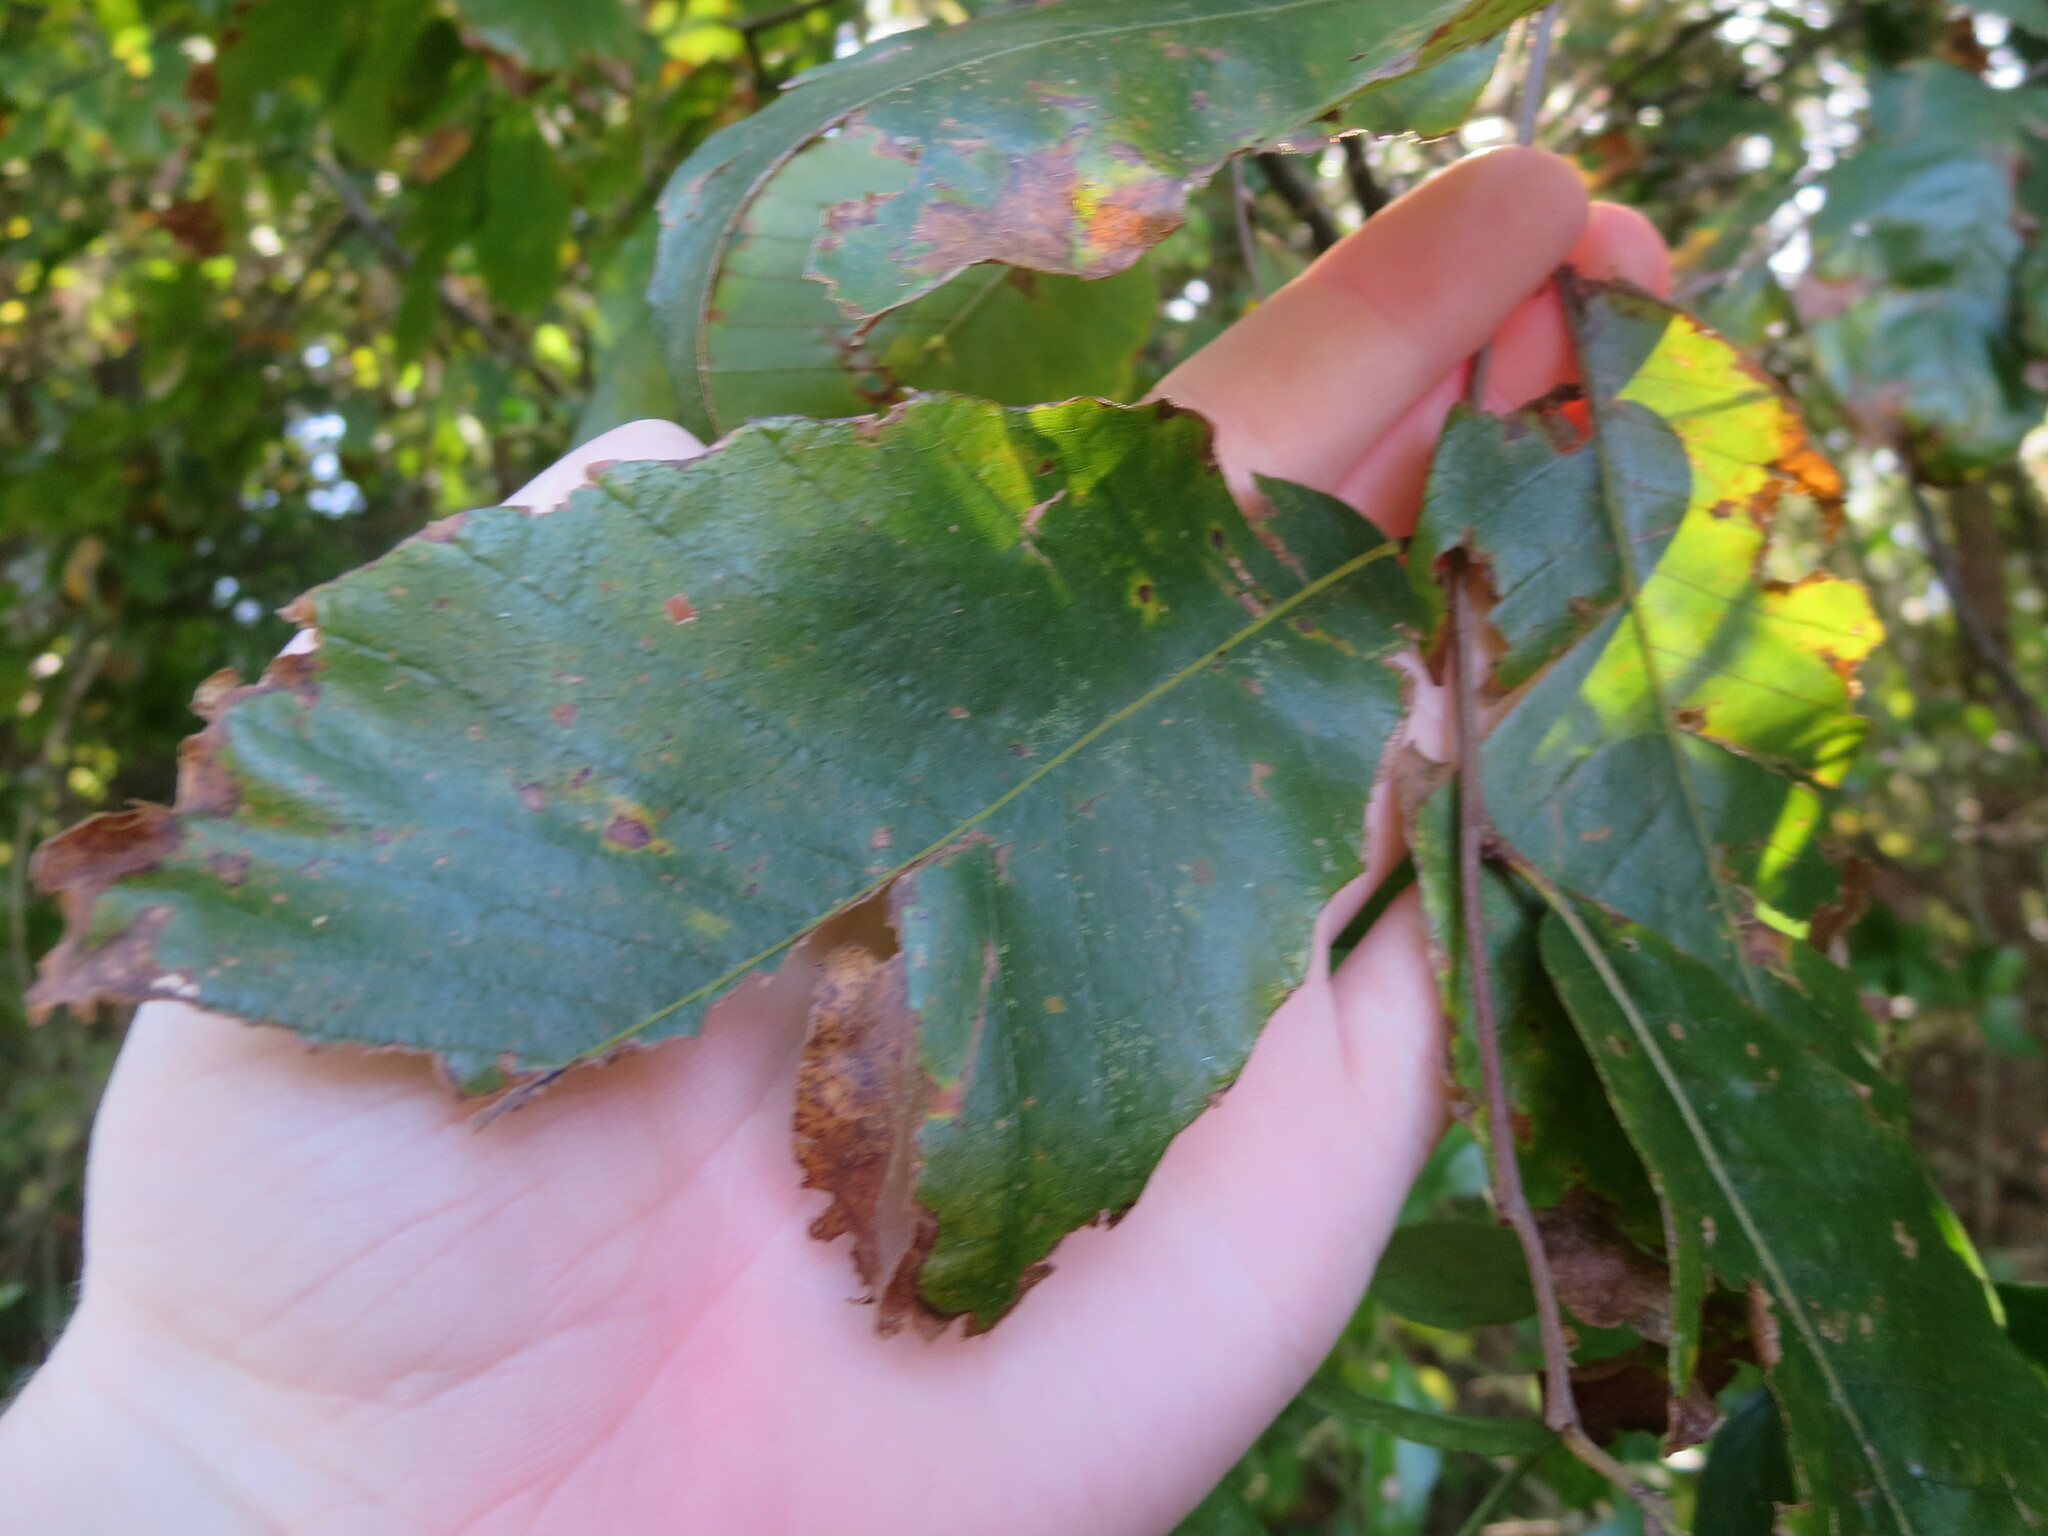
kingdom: Plantae
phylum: Tracheophyta
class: Magnoliopsida
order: Fagales
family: Fagaceae
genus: Castanea
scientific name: Castanea pumila
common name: Chinkapin
